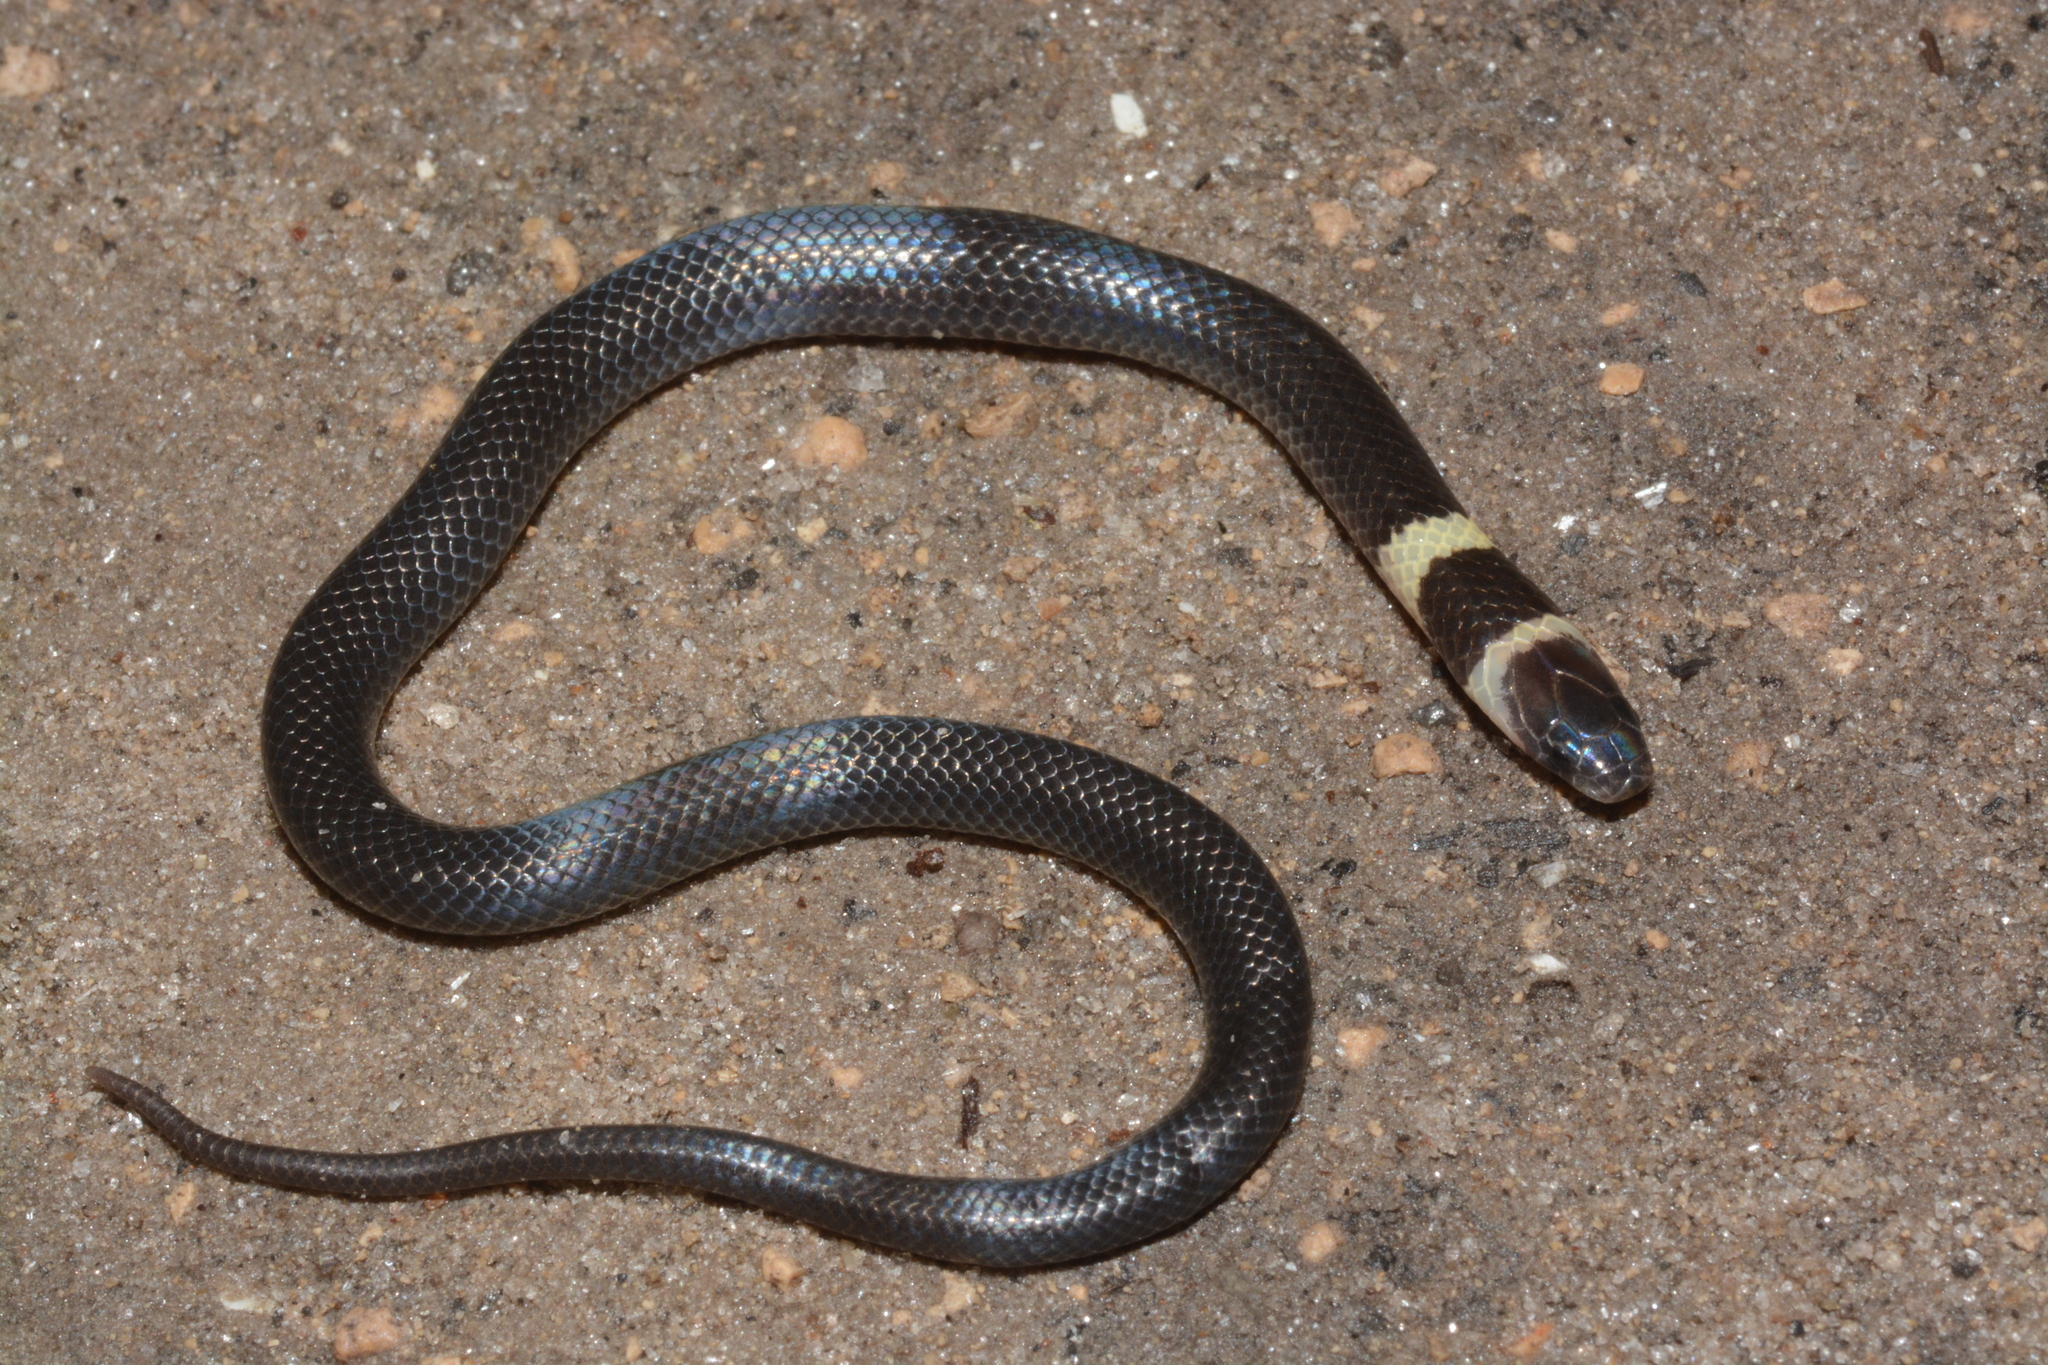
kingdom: Animalia
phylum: Chordata
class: Squamata
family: Atractaspididae
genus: Aparallactus
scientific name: Aparallactus guentheri
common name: Black centipede eater
